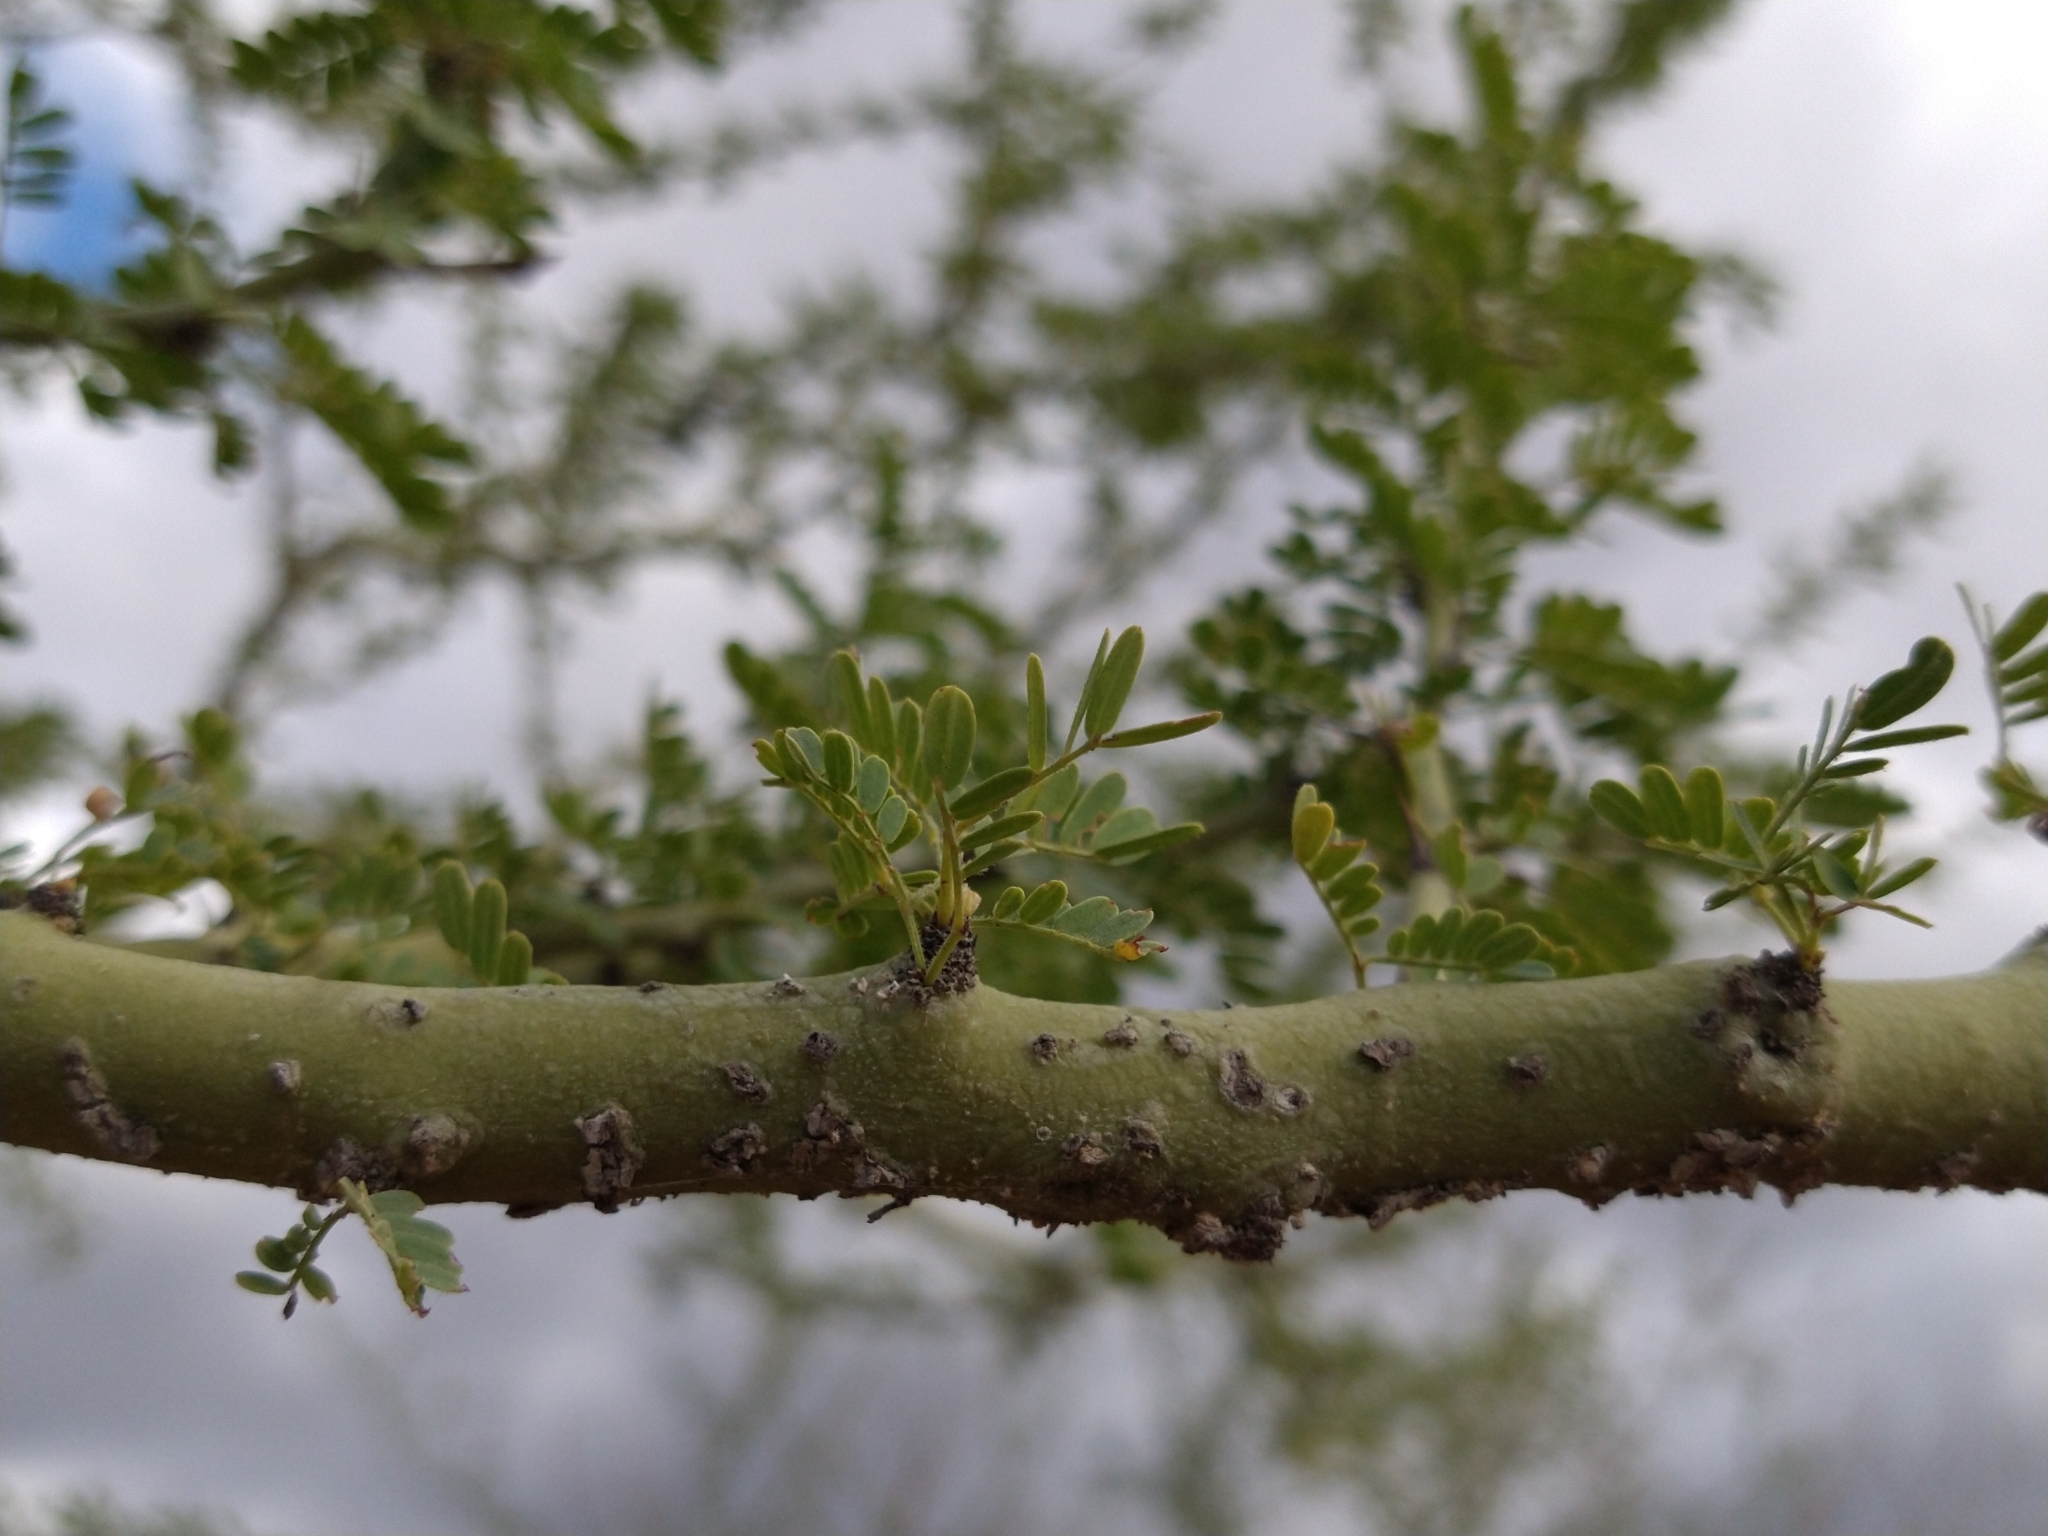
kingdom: Plantae
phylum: Tracheophyta
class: Magnoliopsida
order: Fabales
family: Fabaceae
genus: Parkinsonia
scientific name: Parkinsonia praecox
